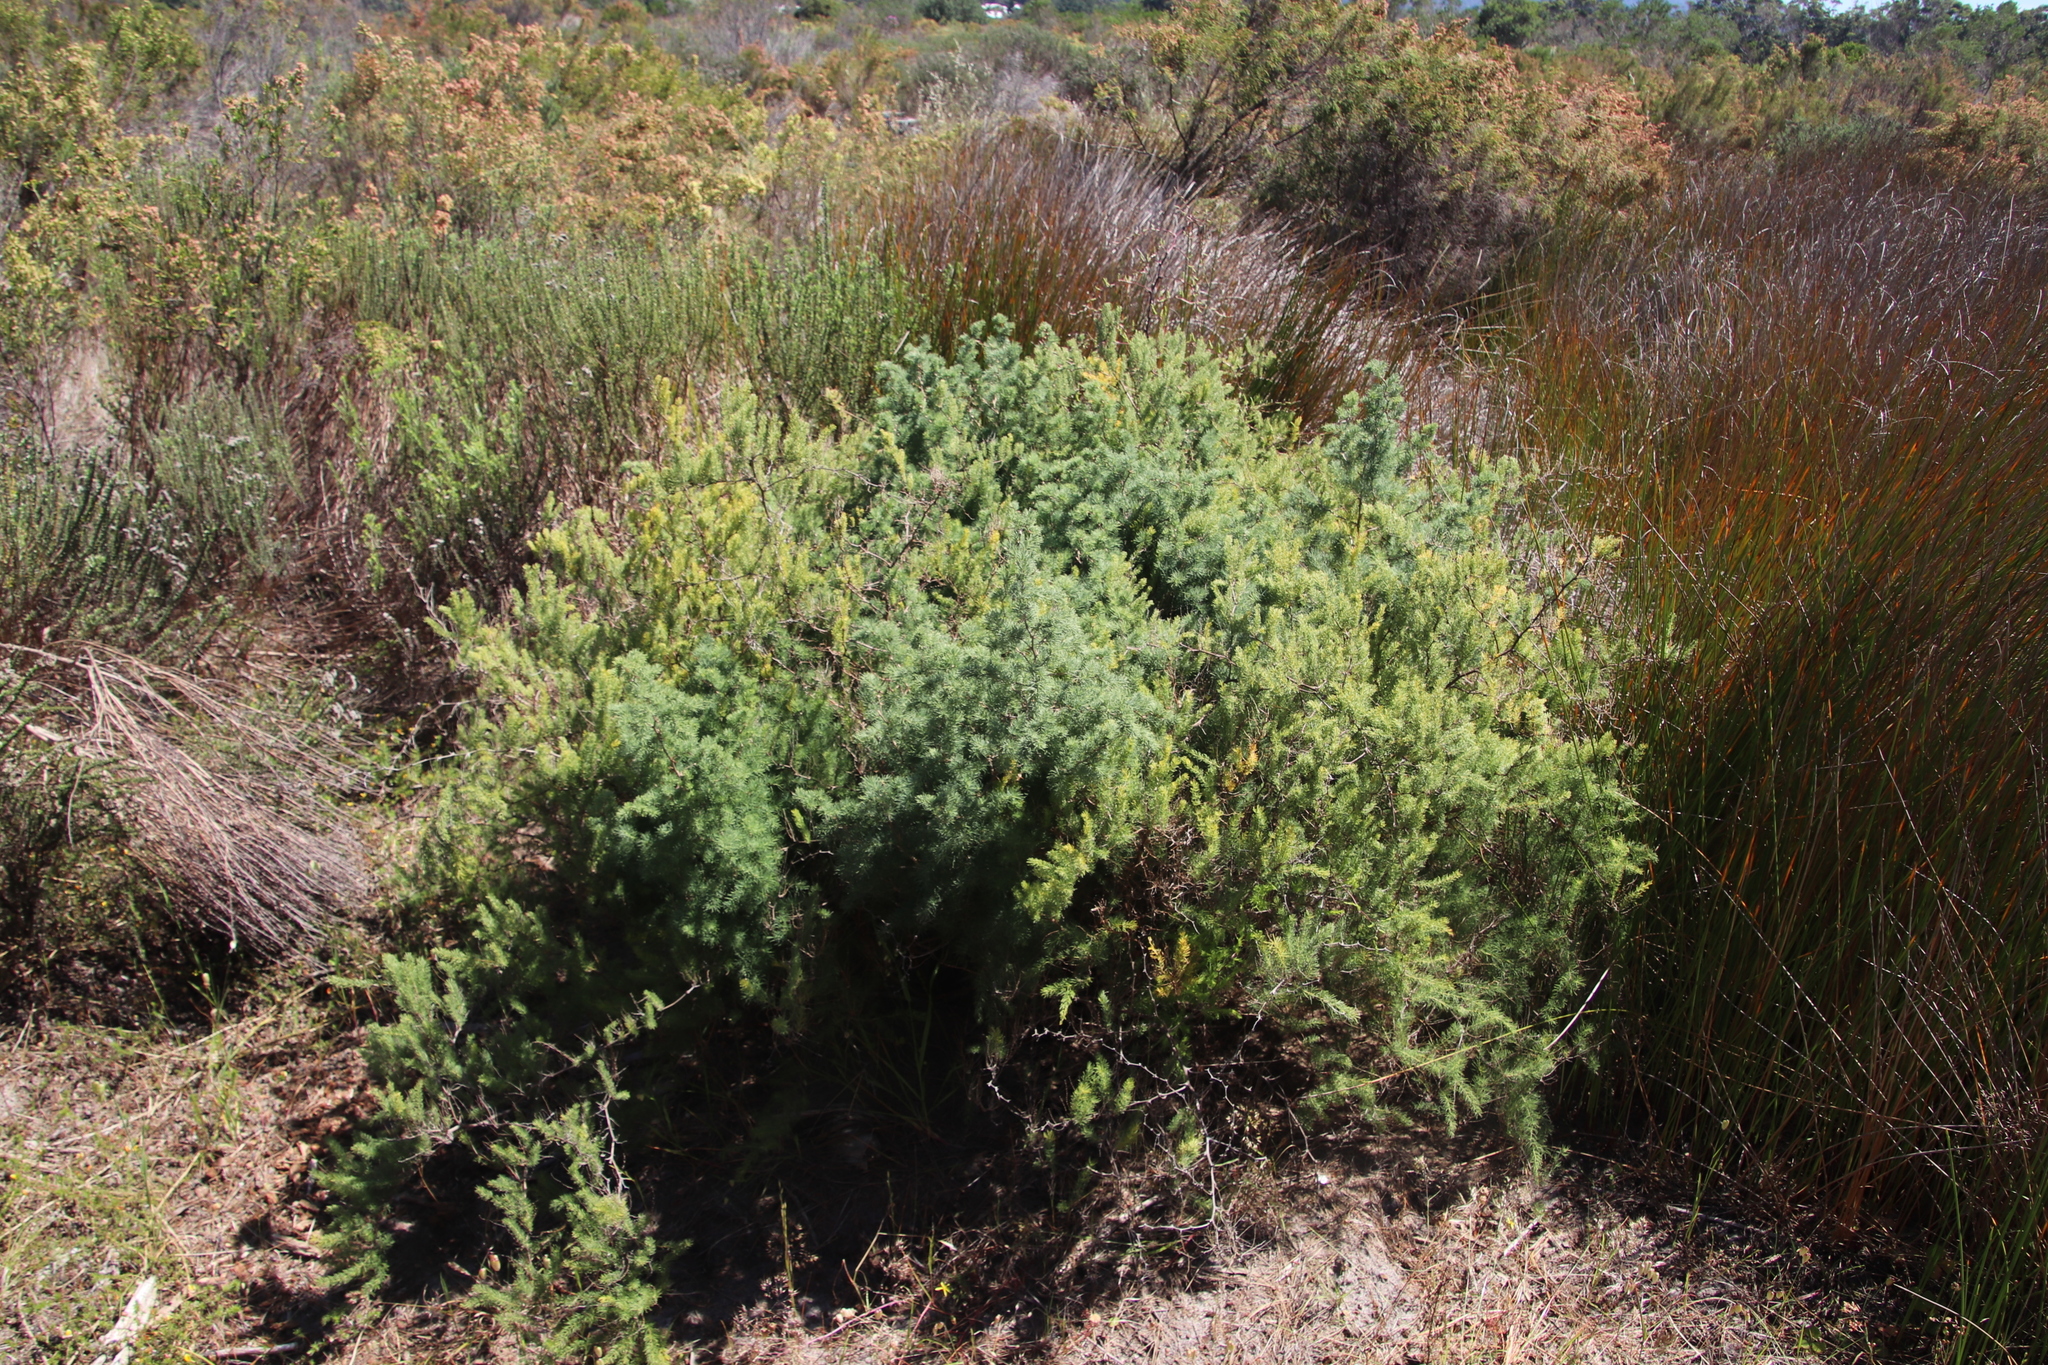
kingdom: Plantae
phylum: Tracheophyta
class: Liliopsida
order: Asparagales
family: Asparagaceae
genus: Asparagus
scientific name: Asparagus rubicundus
